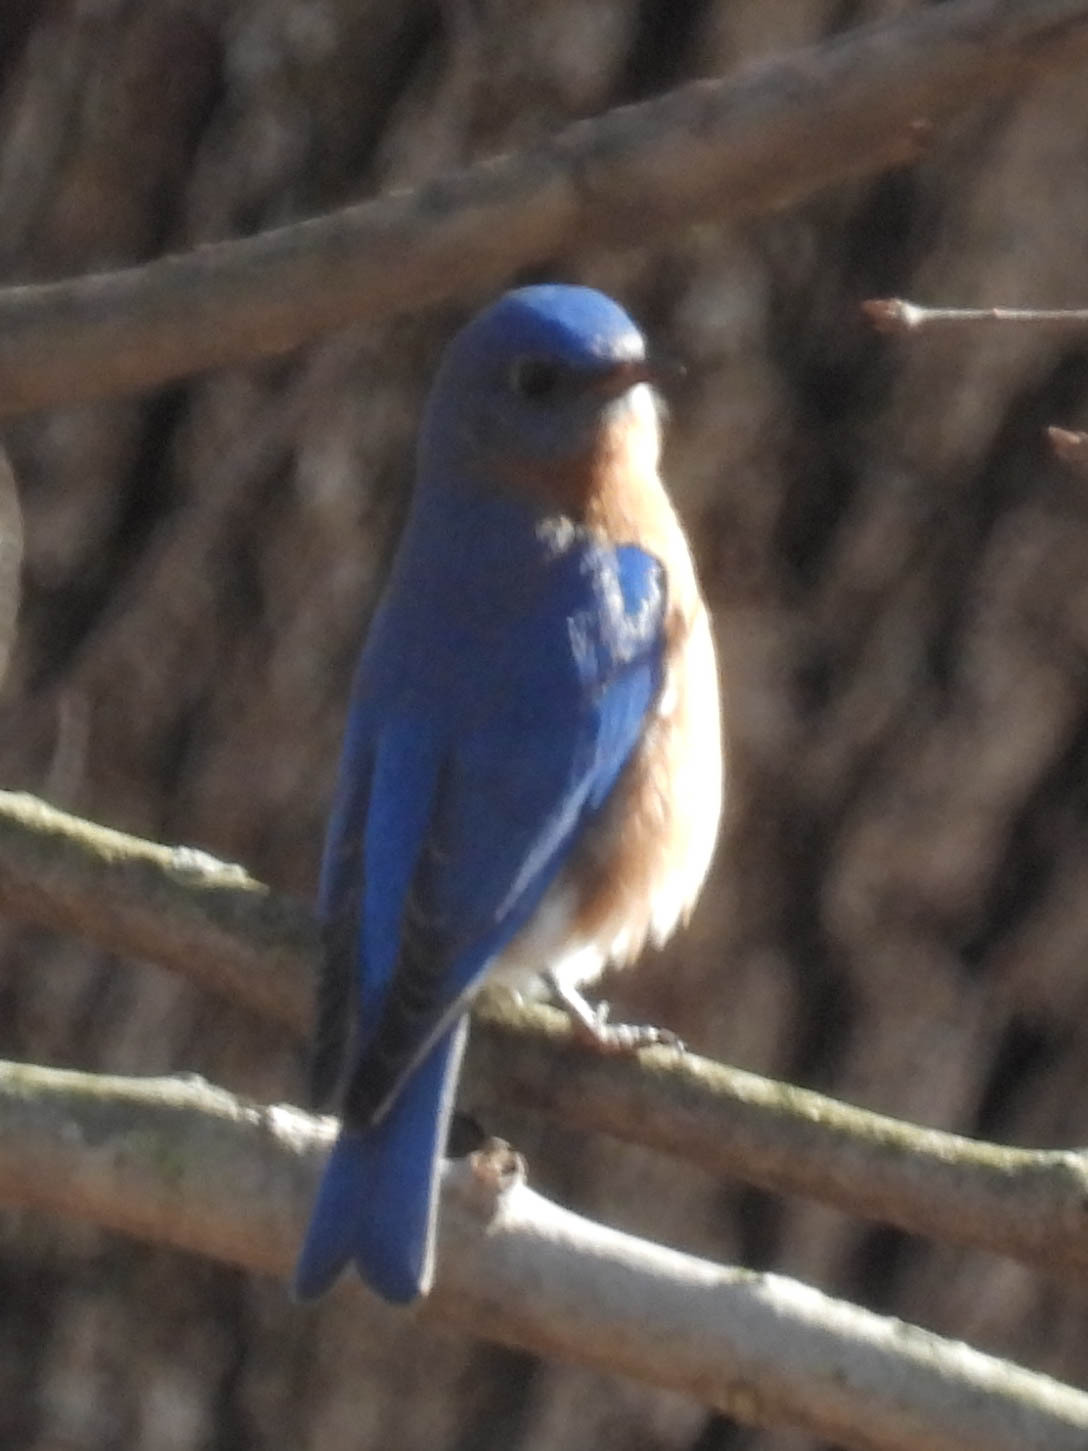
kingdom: Animalia
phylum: Chordata
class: Aves
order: Passeriformes
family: Turdidae
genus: Sialia
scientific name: Sialia sialis
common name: Eastern bluebird
